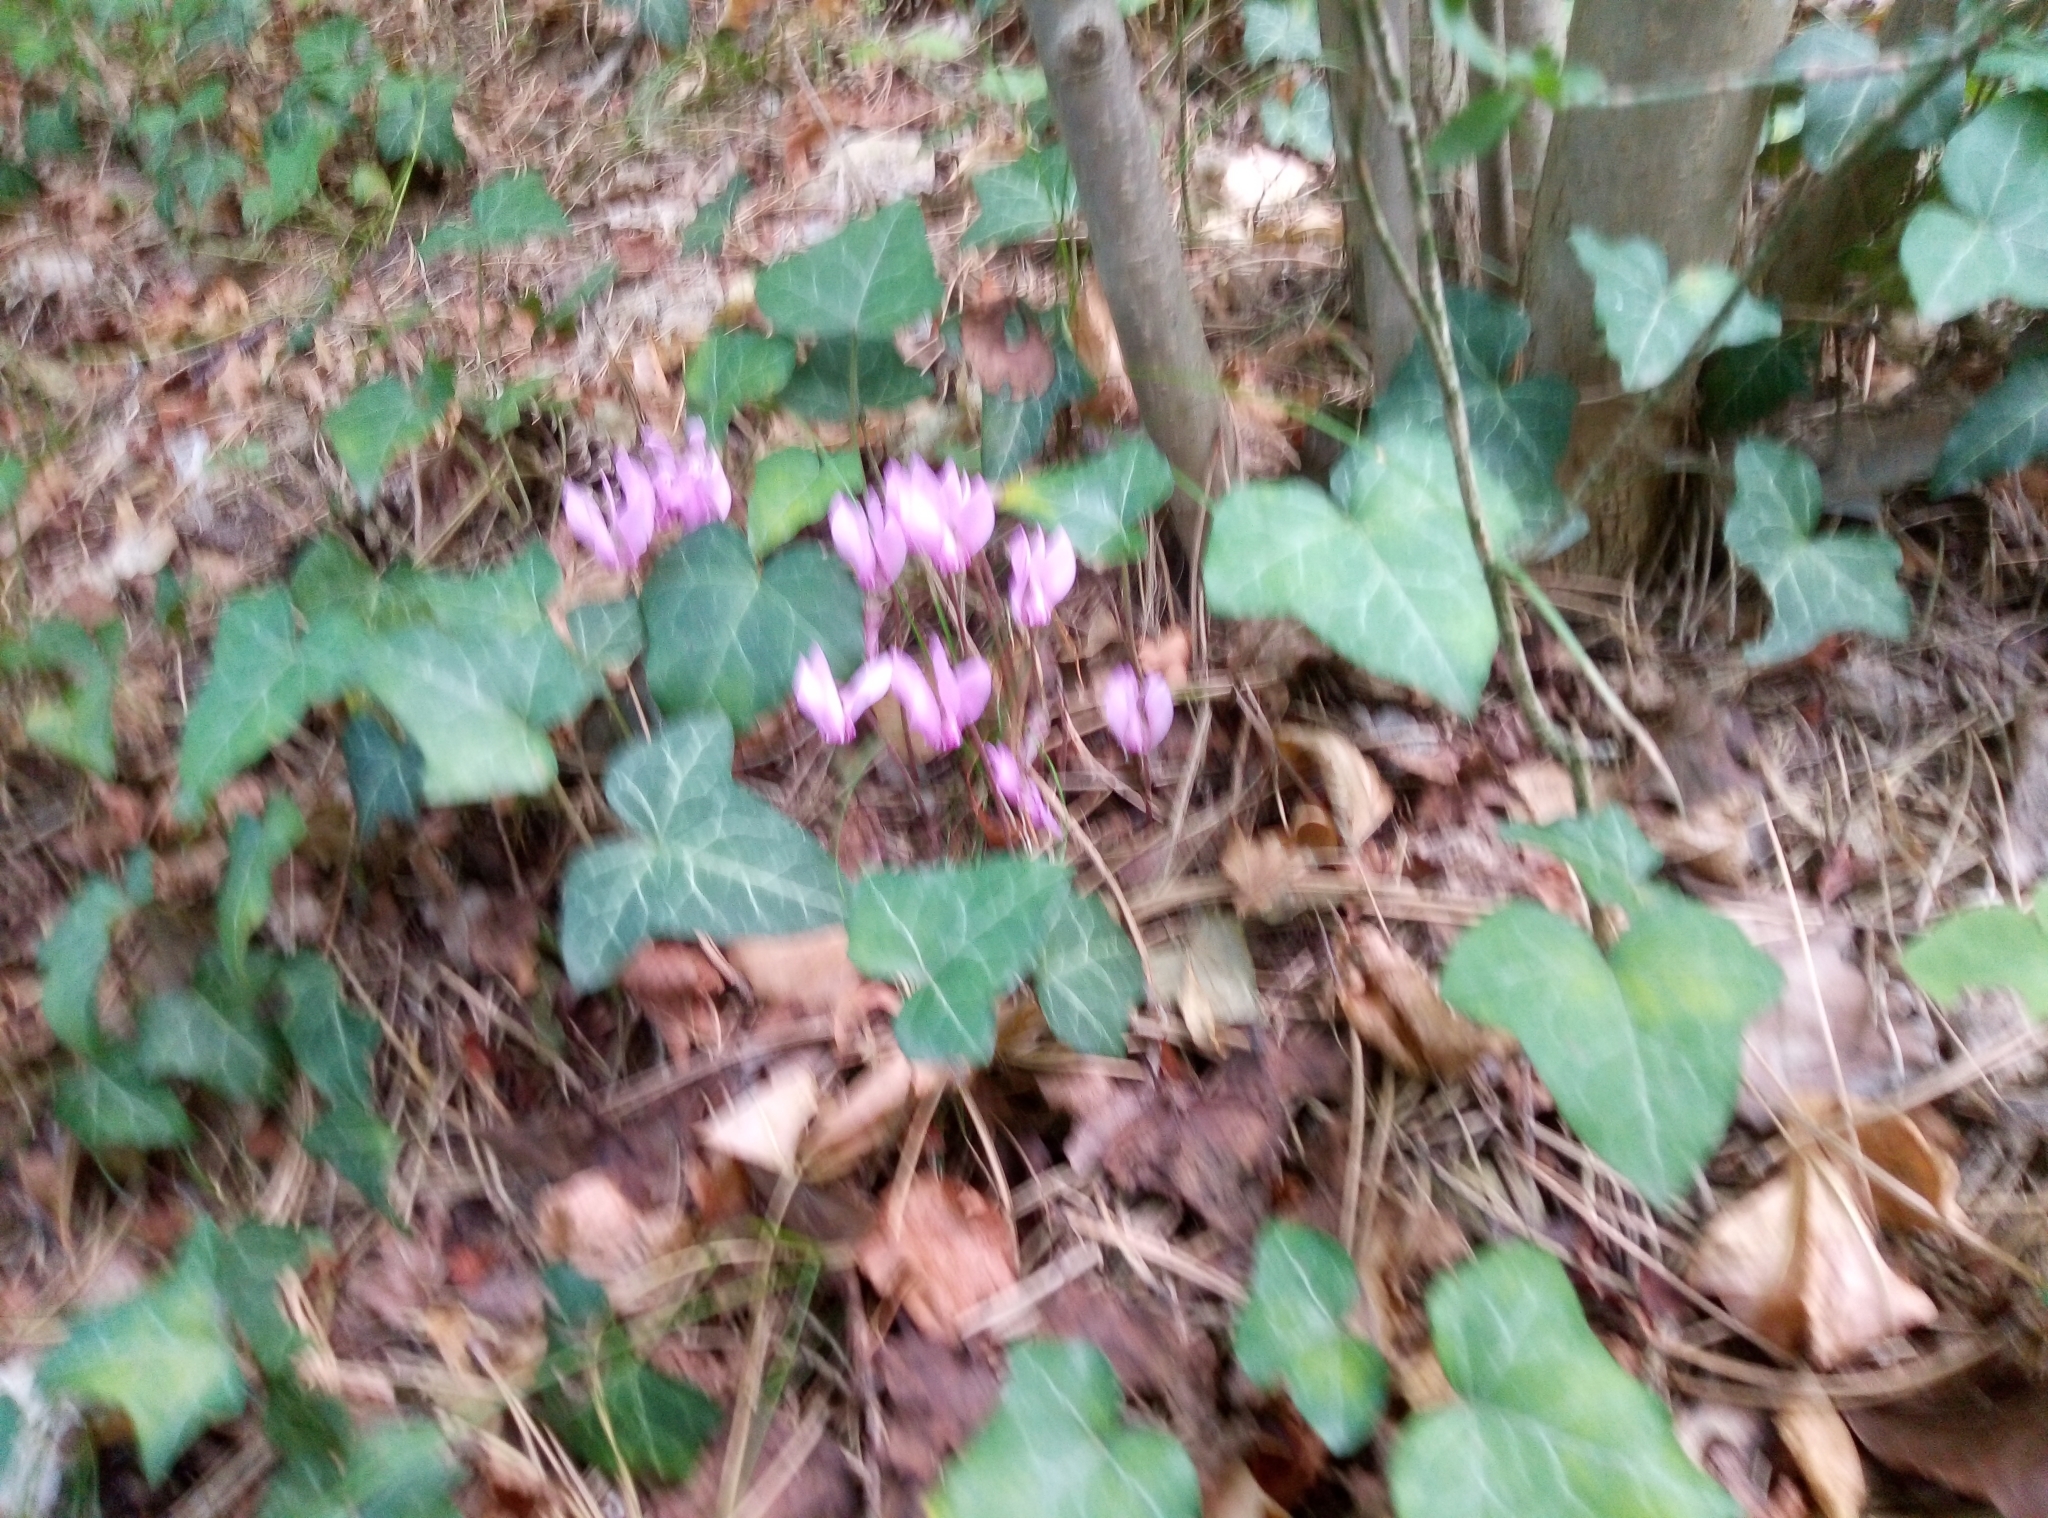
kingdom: Plantae
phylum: Tracheophyta
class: Magnoliopsida
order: Ericales
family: Primulaceae
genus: Cyclamen
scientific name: Cyclamen purpurascens
